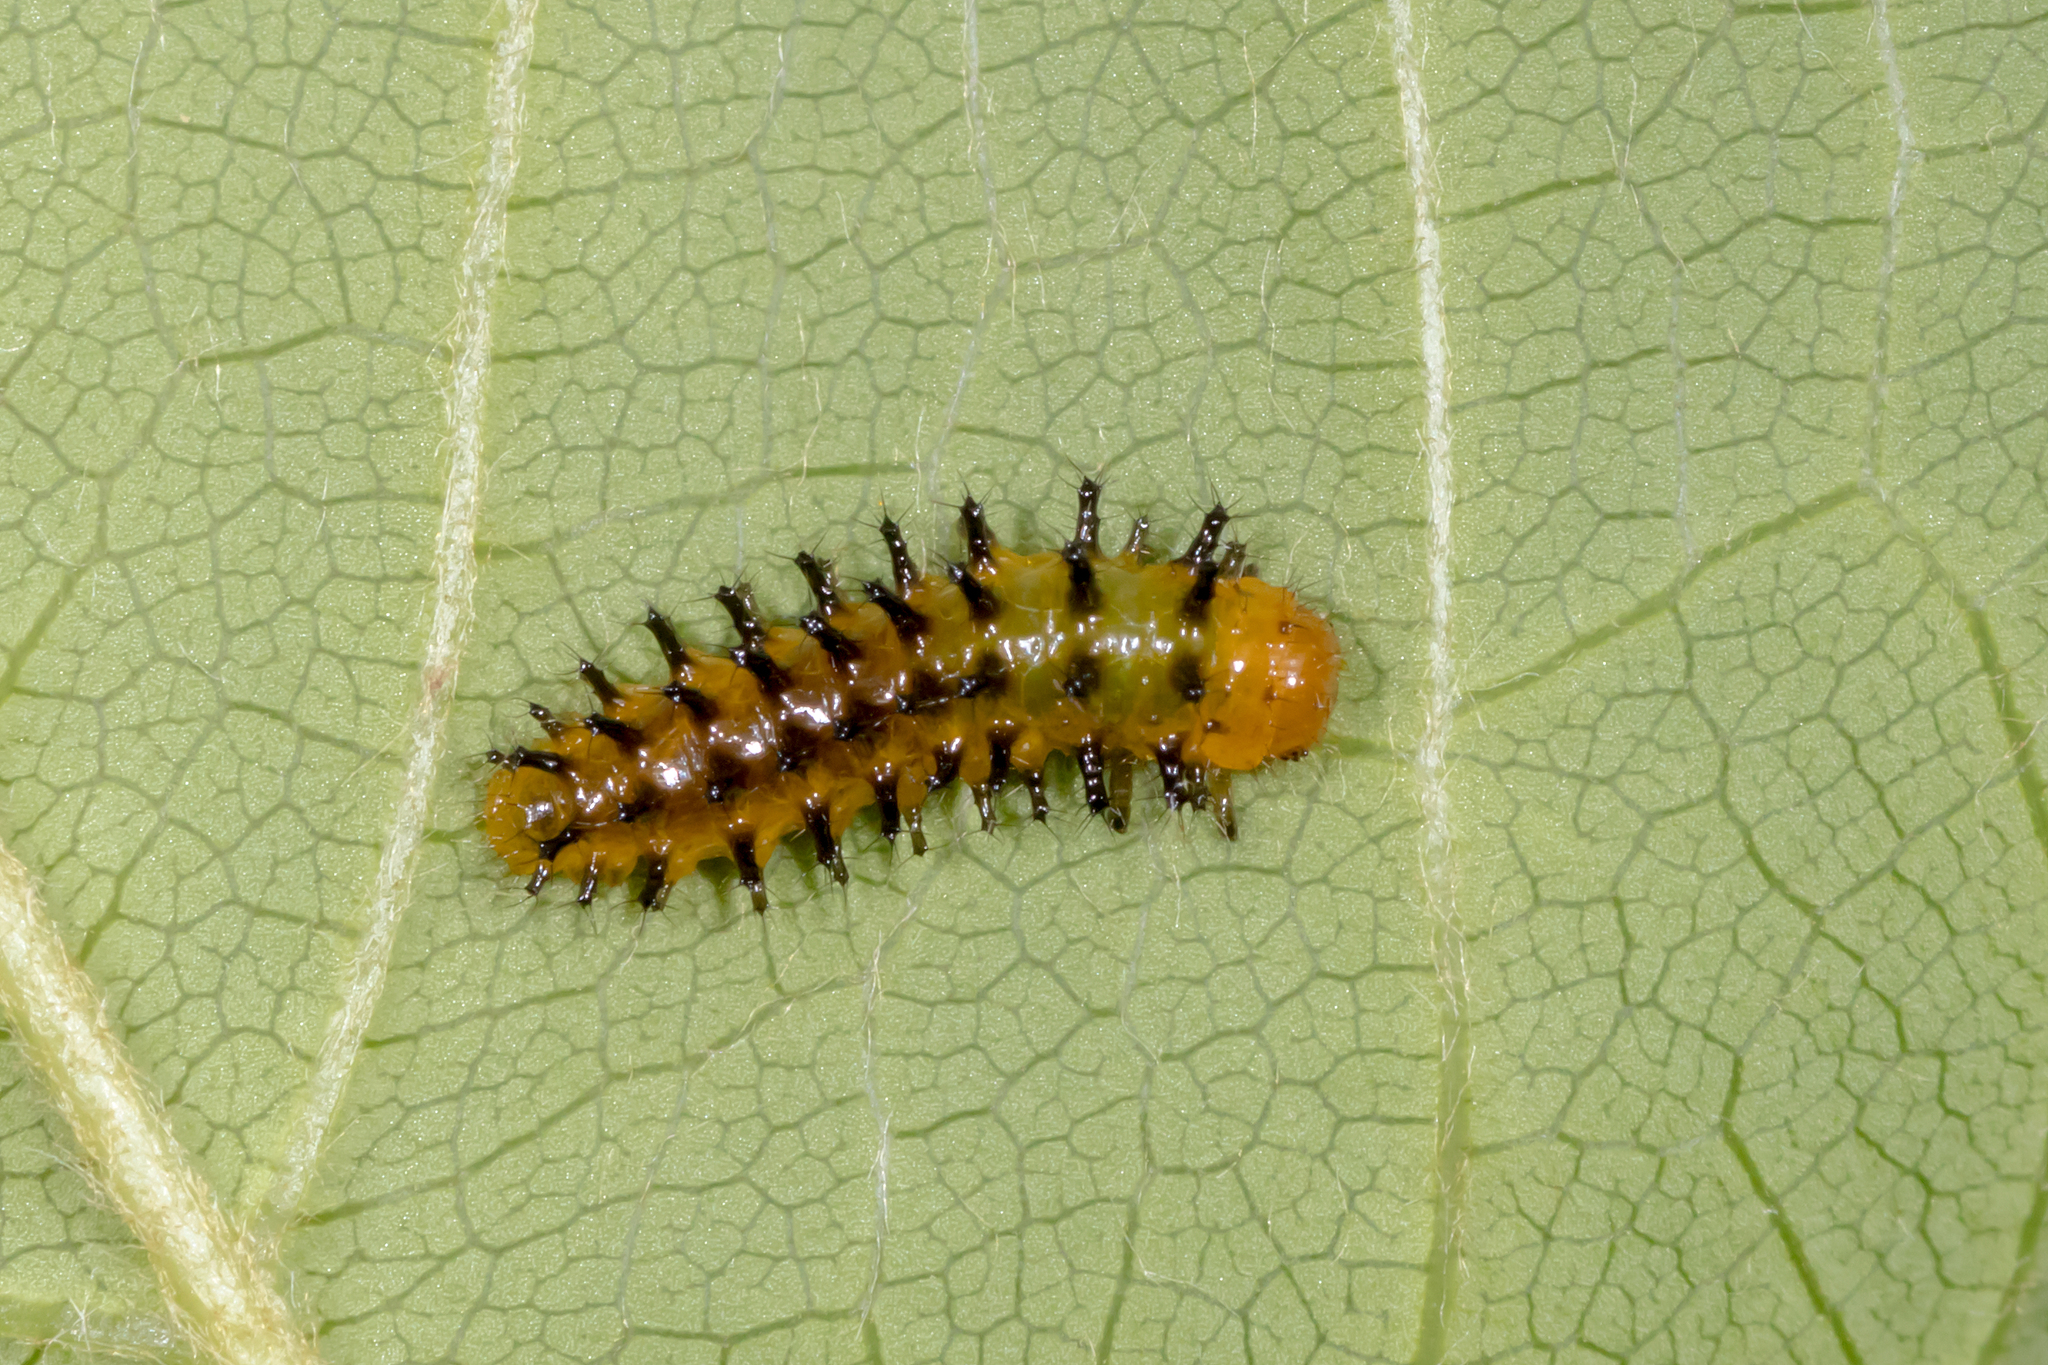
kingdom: Animalia
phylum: Arthropoda
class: Insecta
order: Coleoptera
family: Chrysomelidae
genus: Lamprolina
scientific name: Lamprolina
